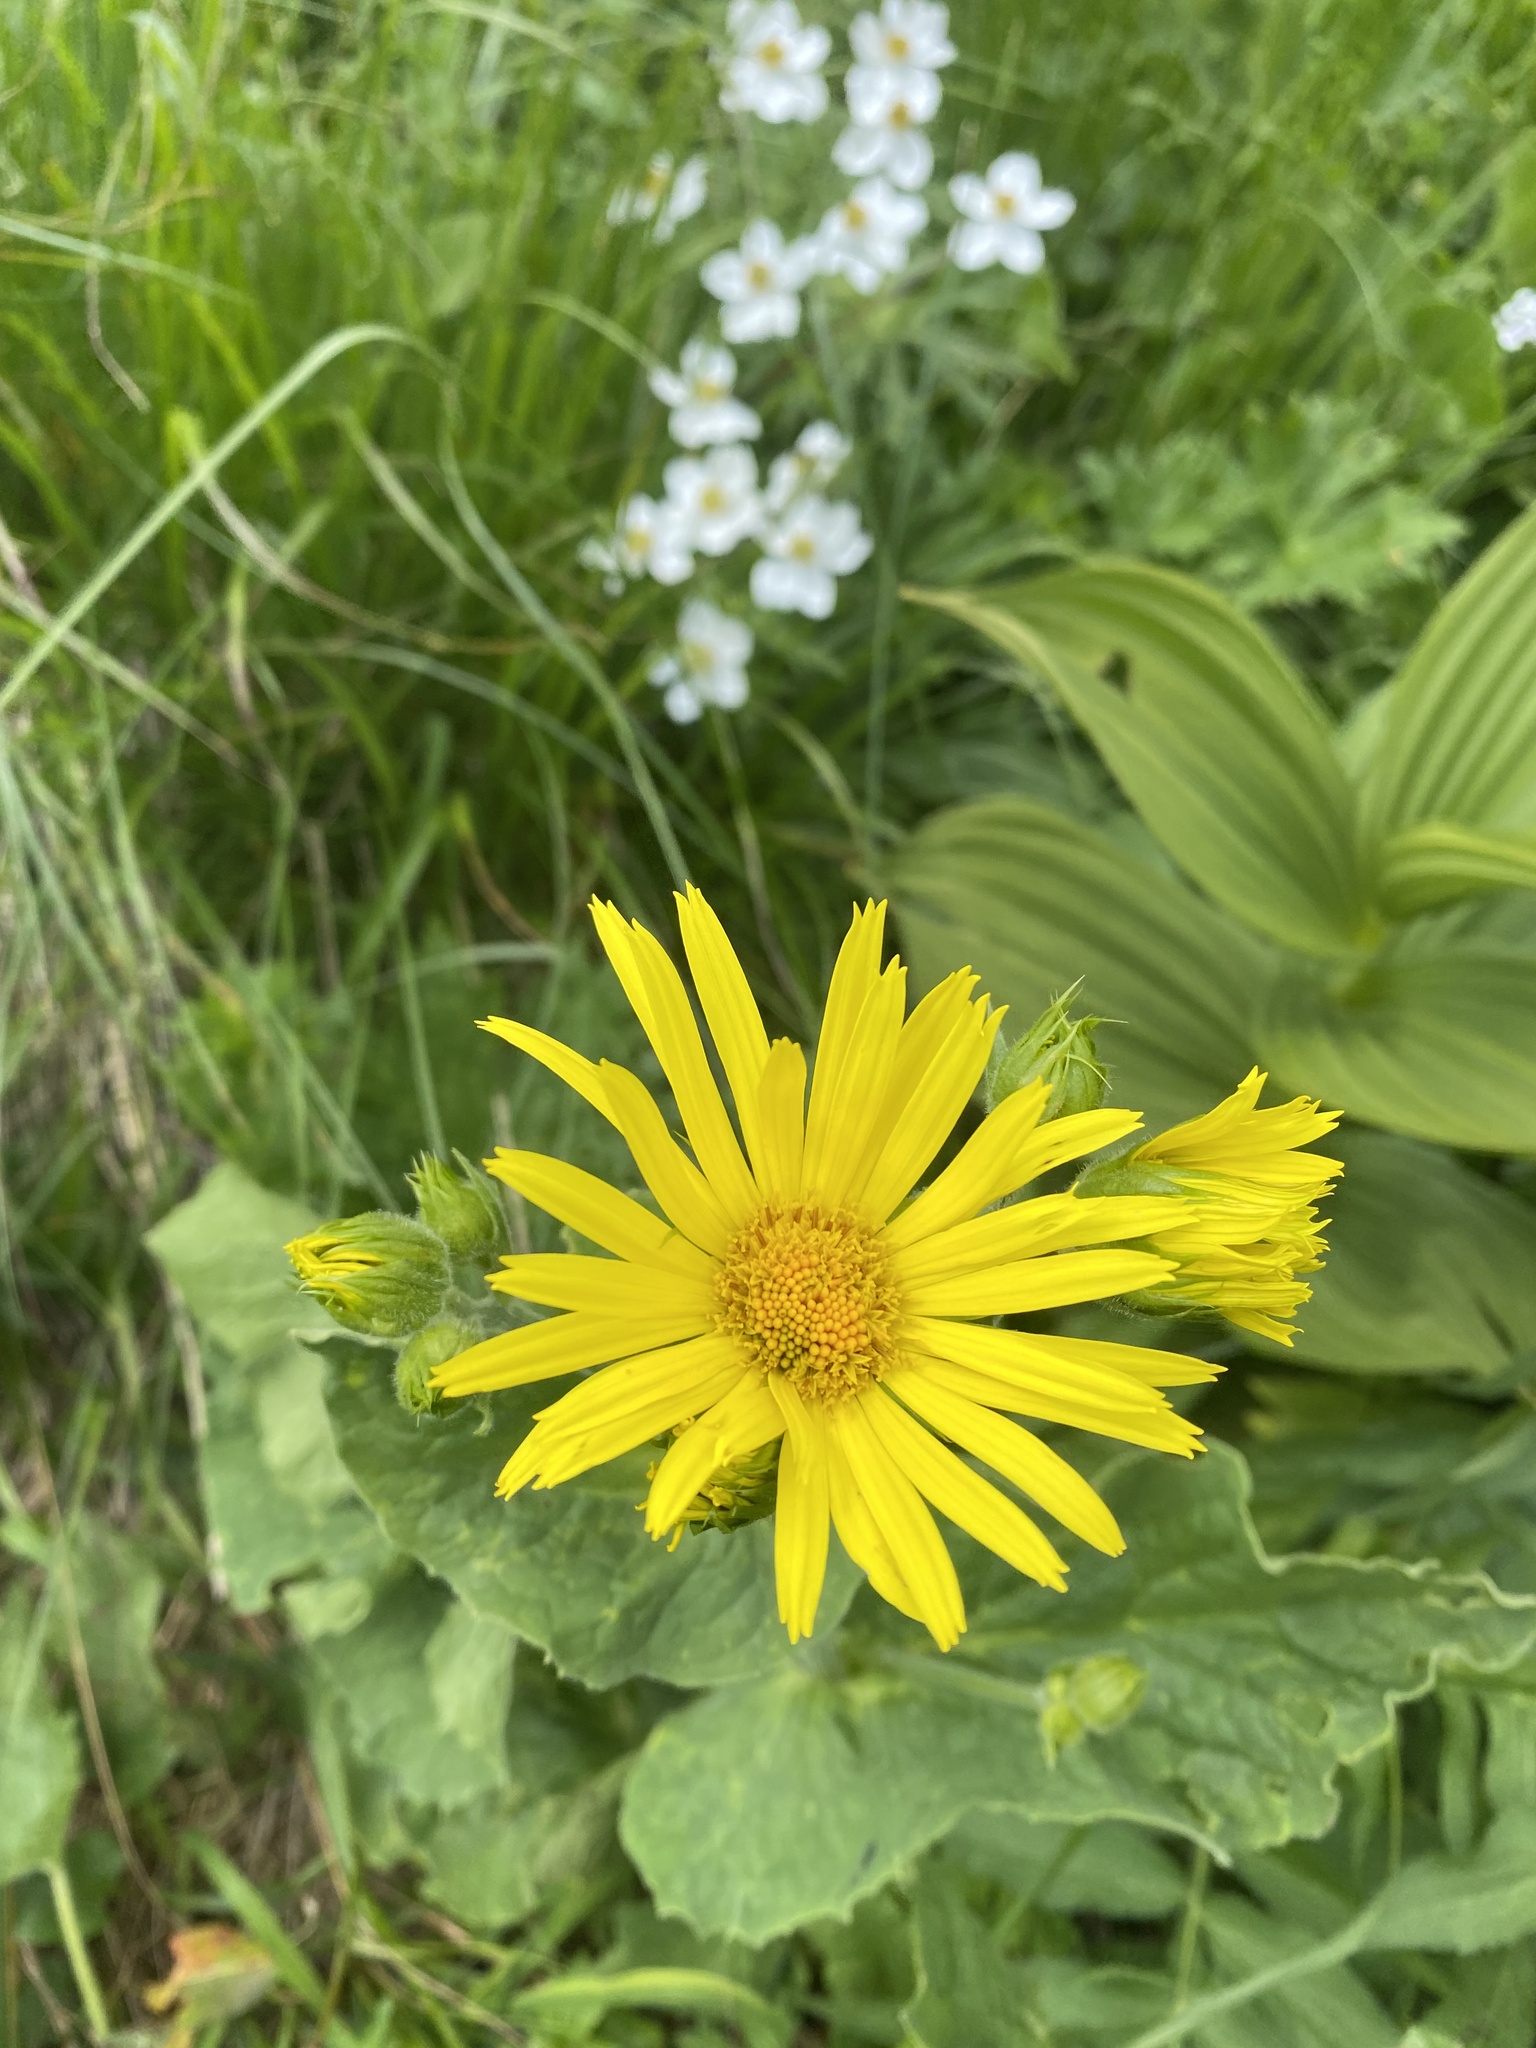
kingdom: Plantae
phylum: Tracheophyta
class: Magnoliopsida
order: Asterales
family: Asteraceae
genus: Doronicum
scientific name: Doronicum macrophyllum
